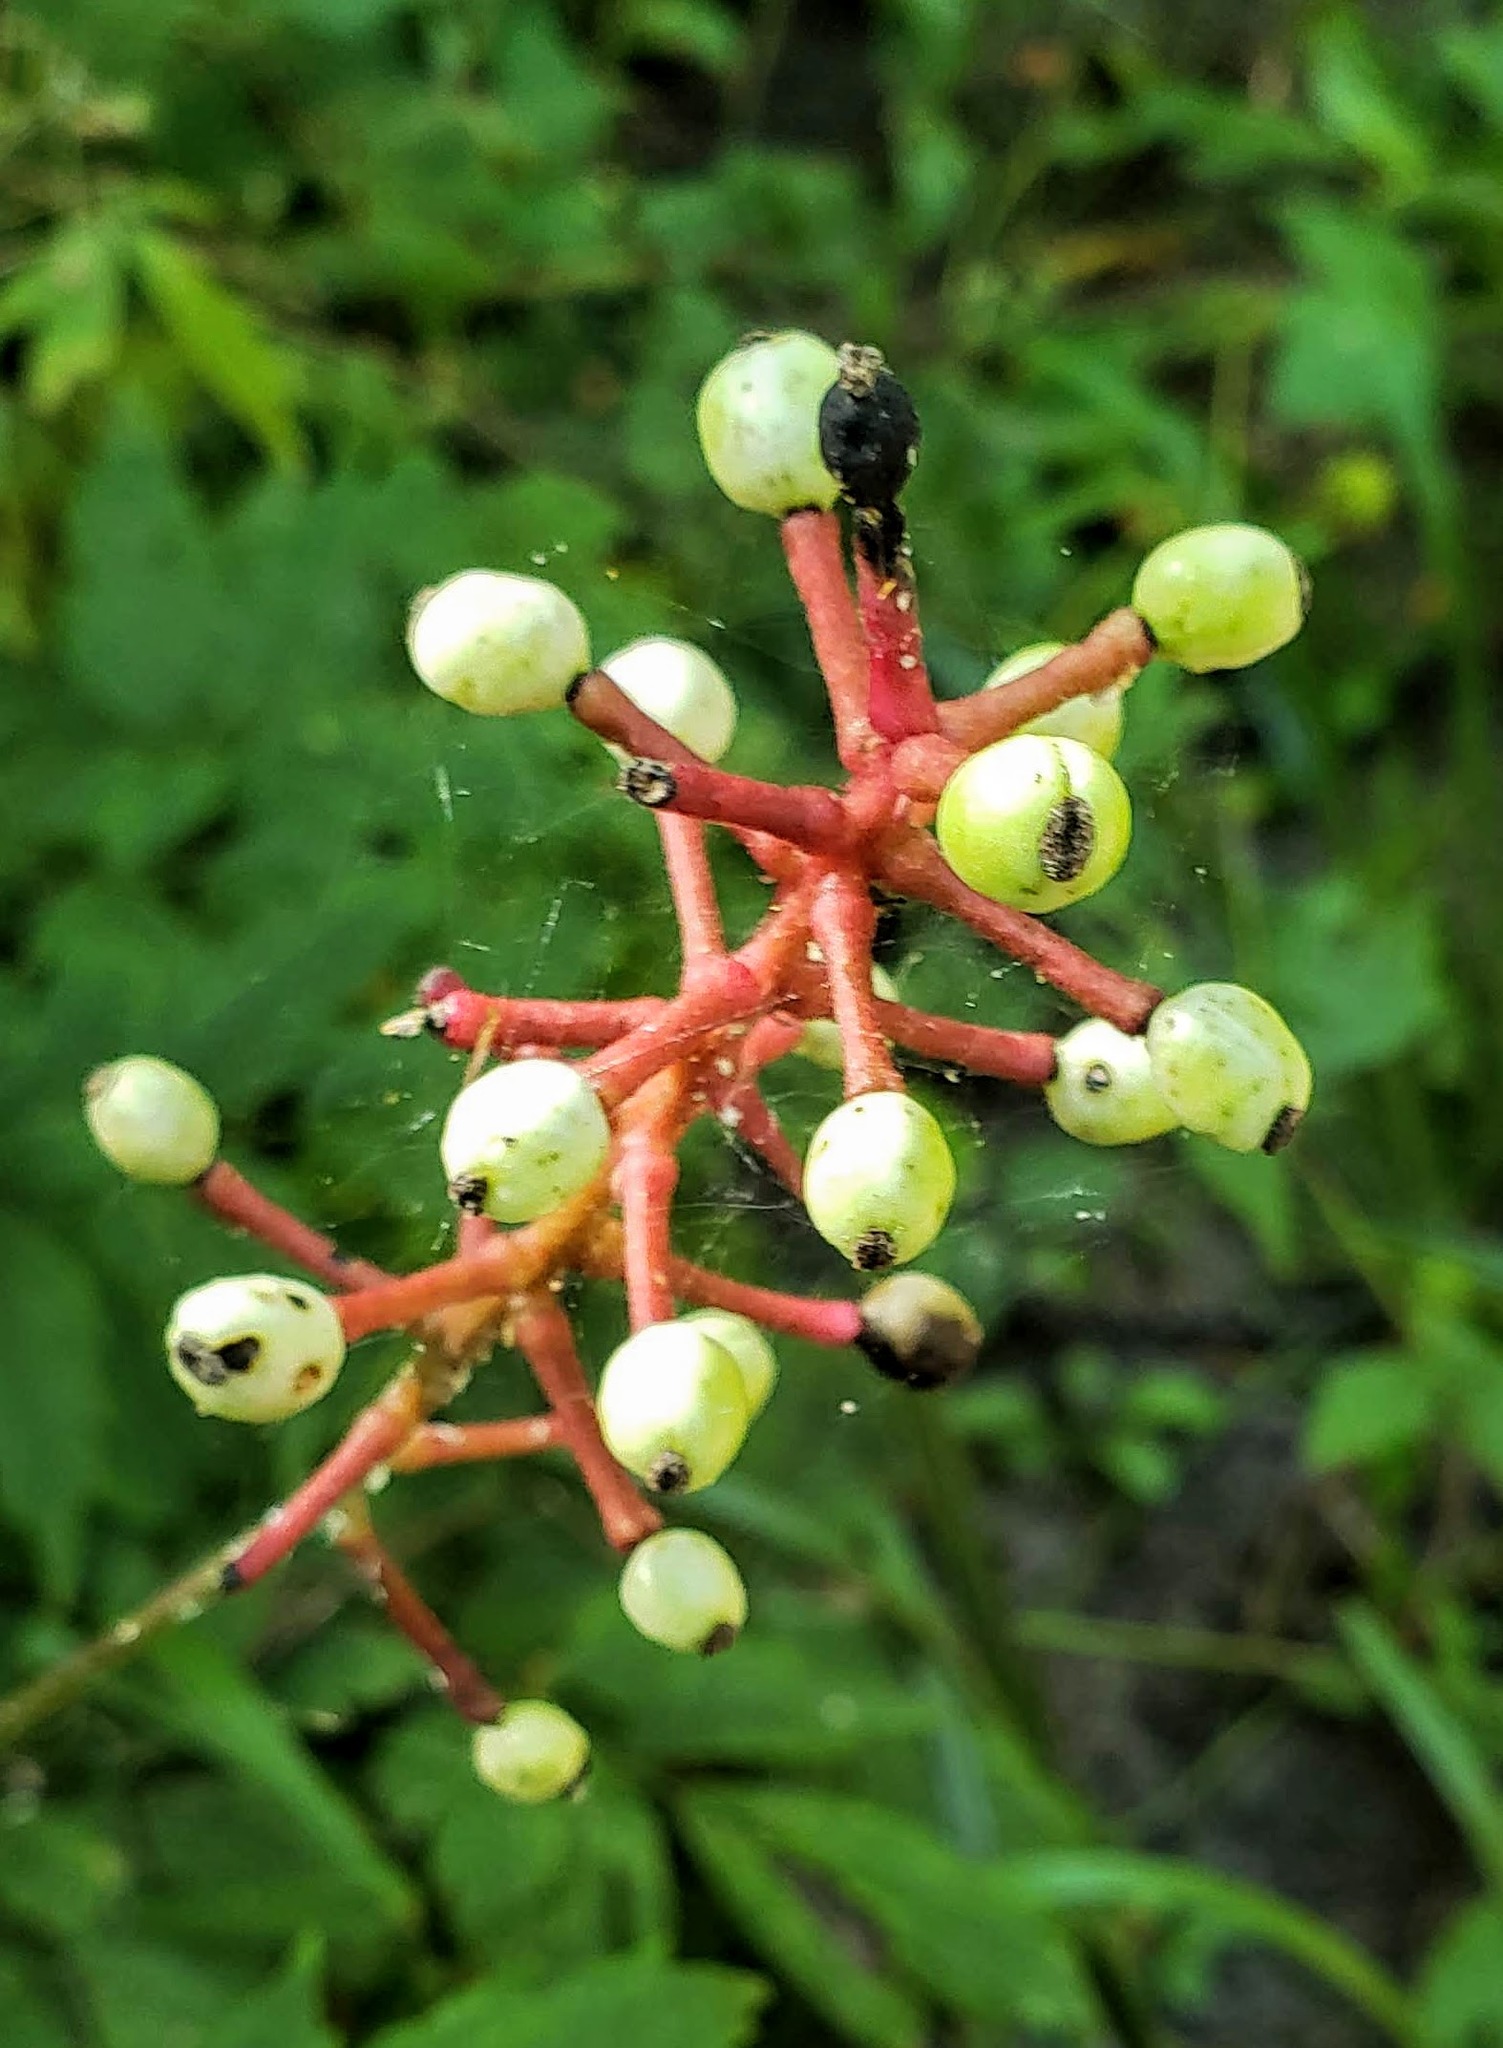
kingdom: Plantae
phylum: Tracheophyta
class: Magnoliopsida
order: Ranunculales
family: Ranunculaceae
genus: Actaea
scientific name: Actaea pachypoda
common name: Doll's-eyes
